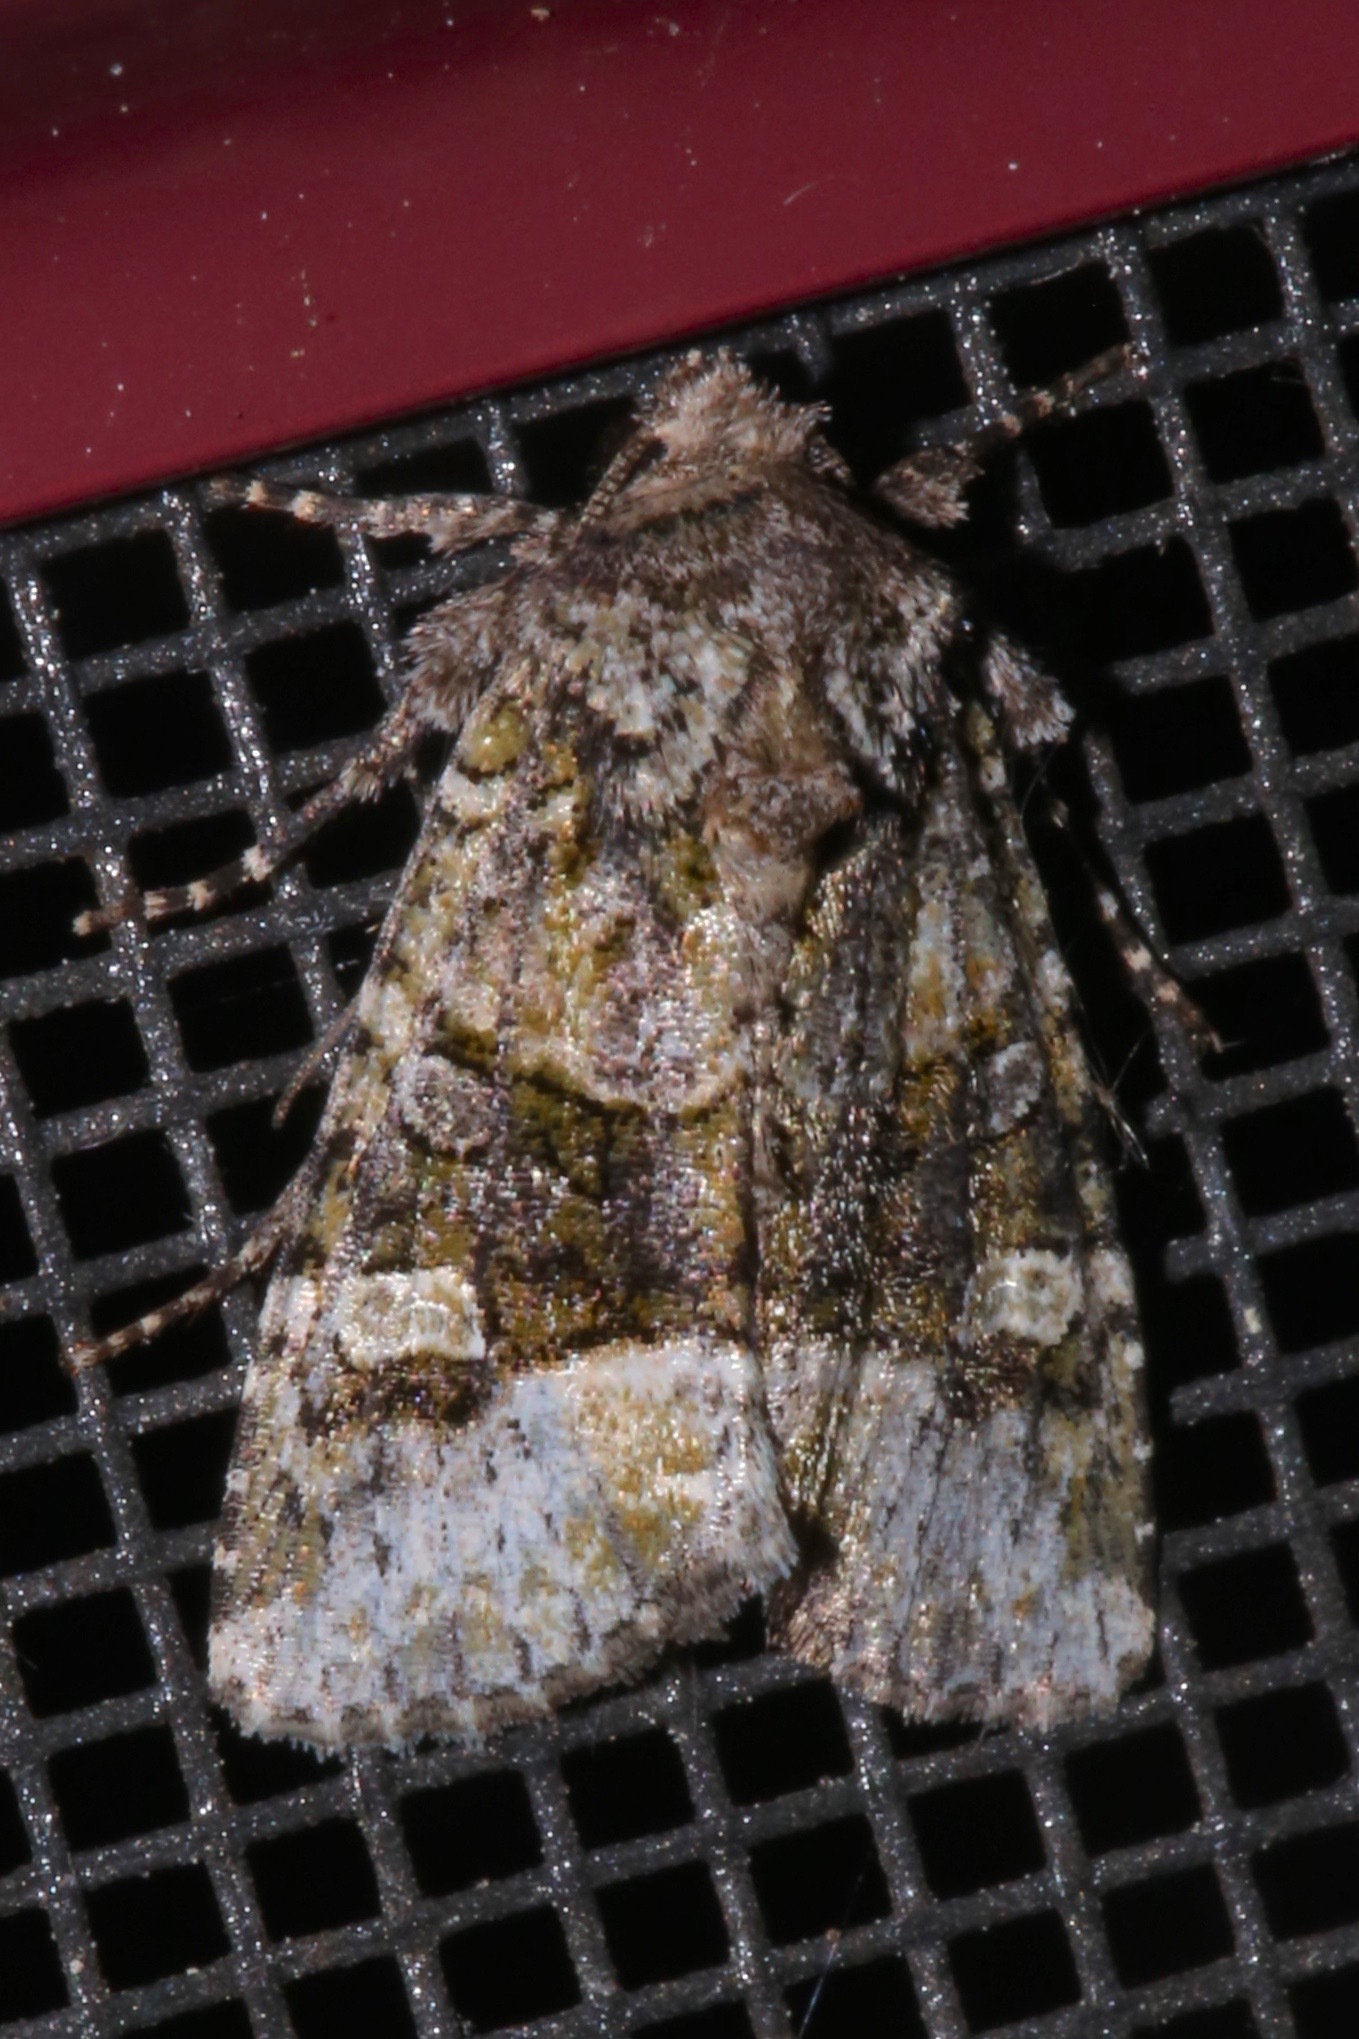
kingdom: Animalia
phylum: Arthropoda
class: Insecta
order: Lepidoptera
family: Noctuidae
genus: Lacinipolia
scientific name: Lacinipolia olivacea
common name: Olive arches moth
